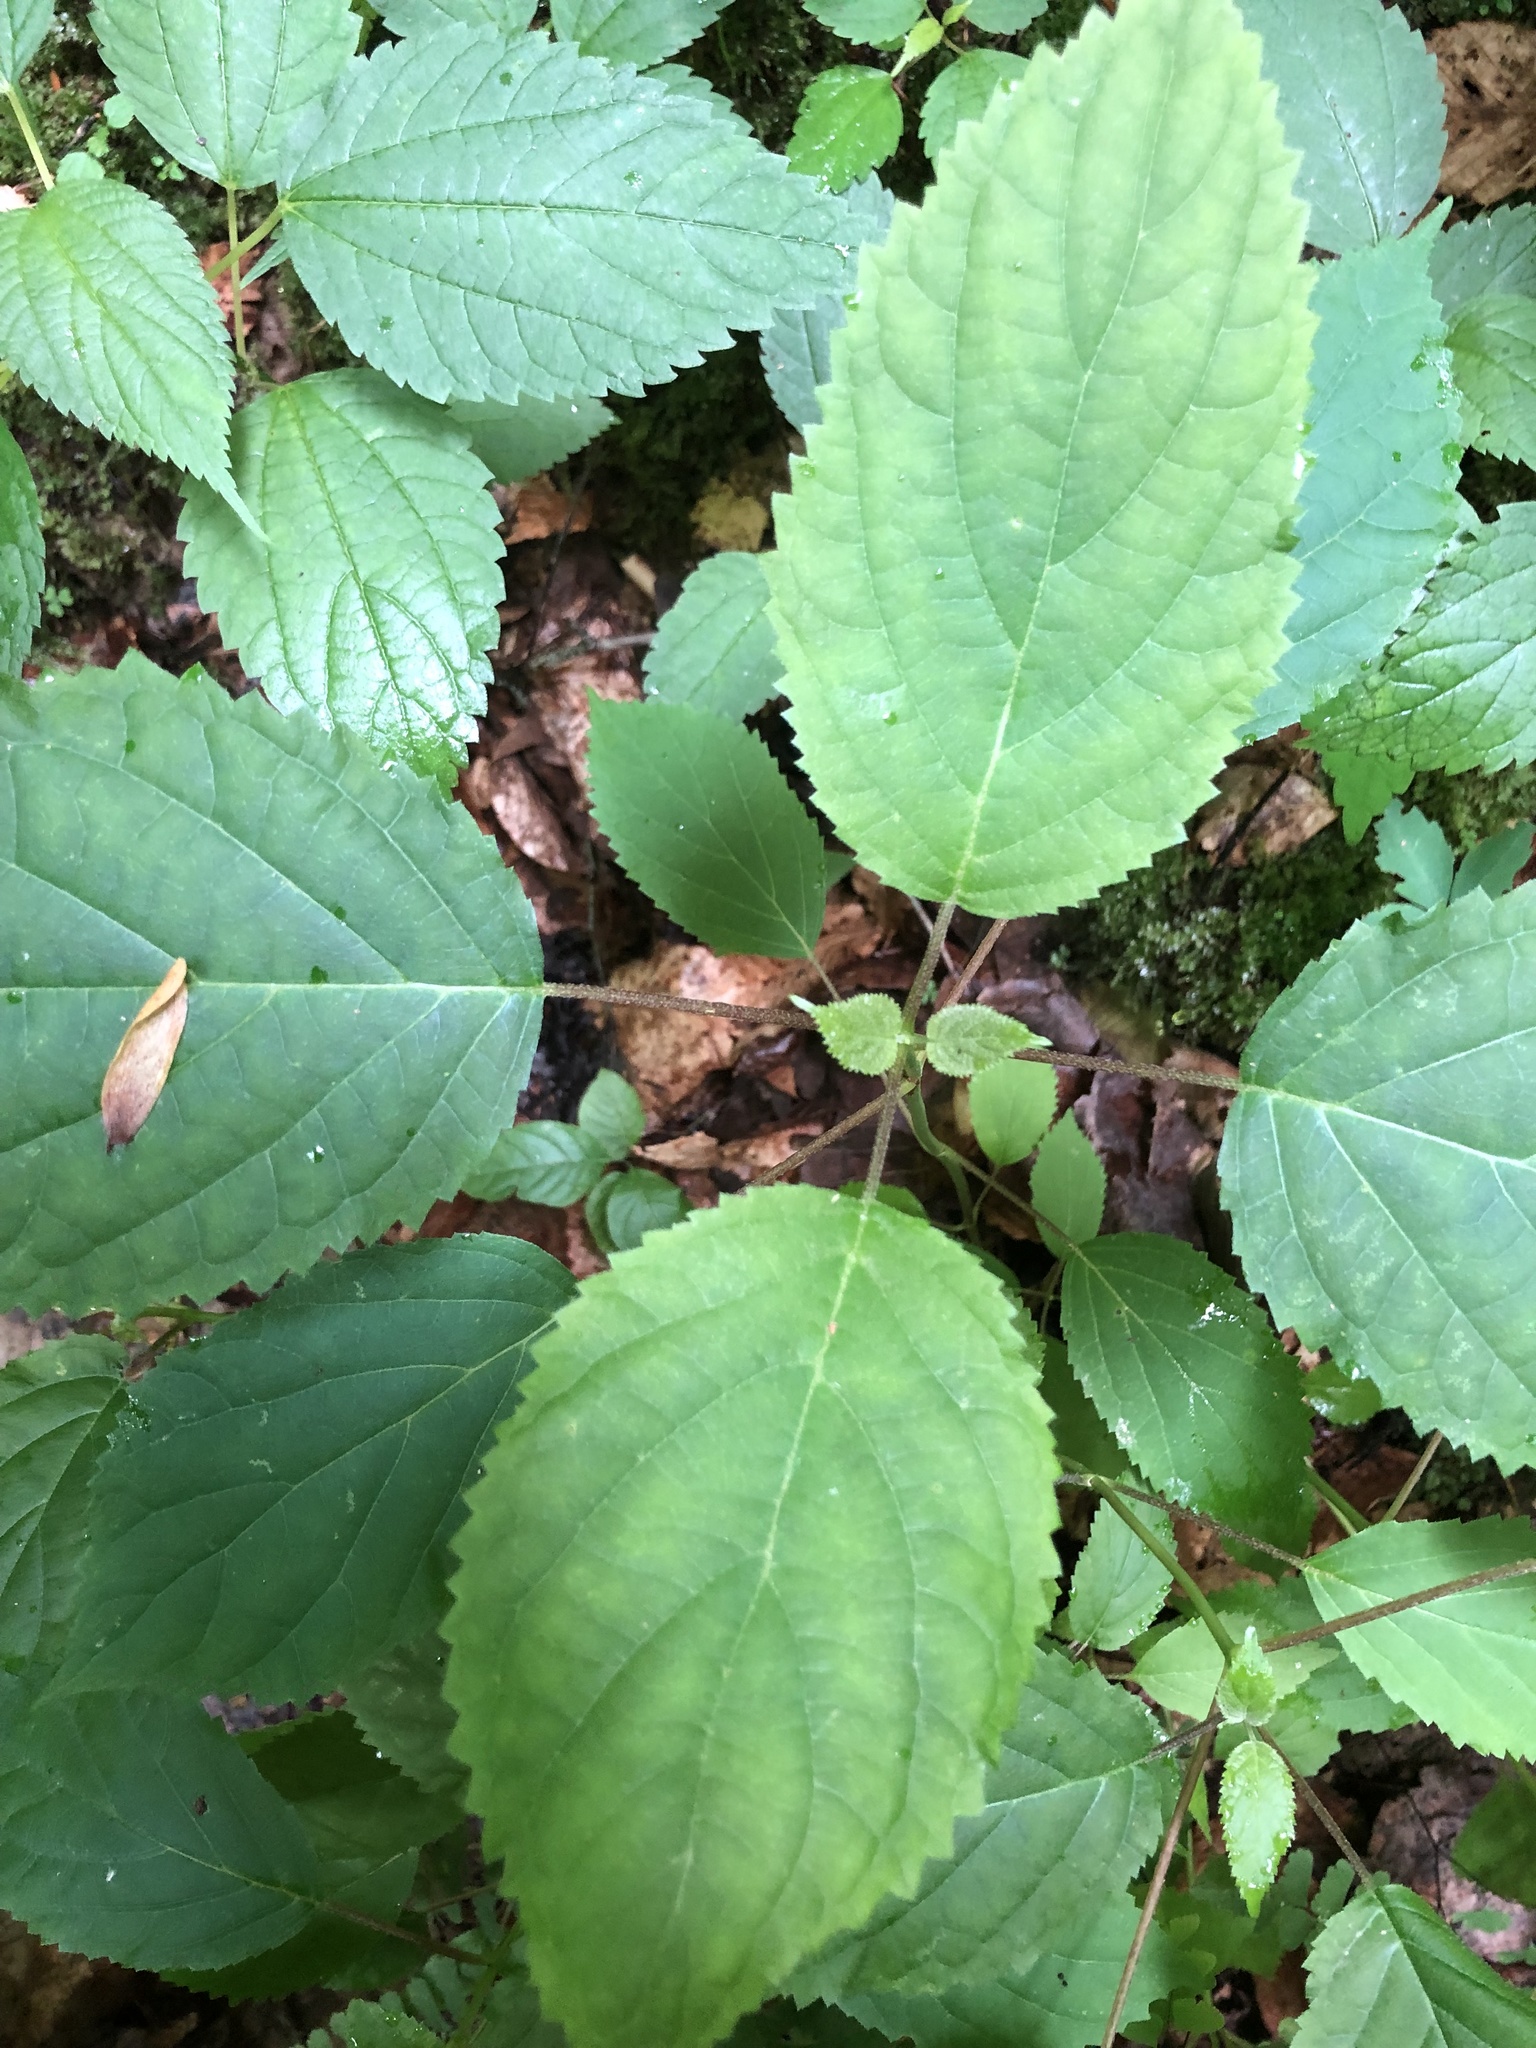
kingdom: Plantae
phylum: Tracheophyta
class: Magnoliopsida
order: Cornales
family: Hydrangeaceae
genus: Hydrangea
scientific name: Hydrangea arborescens
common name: Sevenbark
